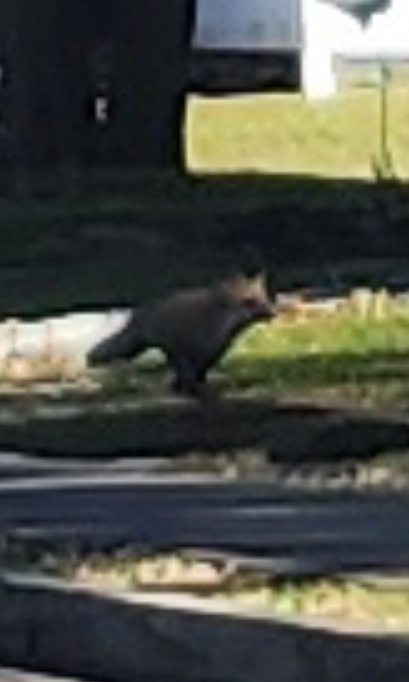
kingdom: Animalia
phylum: Chordata
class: Mammalia
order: Carnivora
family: Canidae
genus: Vulpes
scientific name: Vulpes vulpes
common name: Red fox
